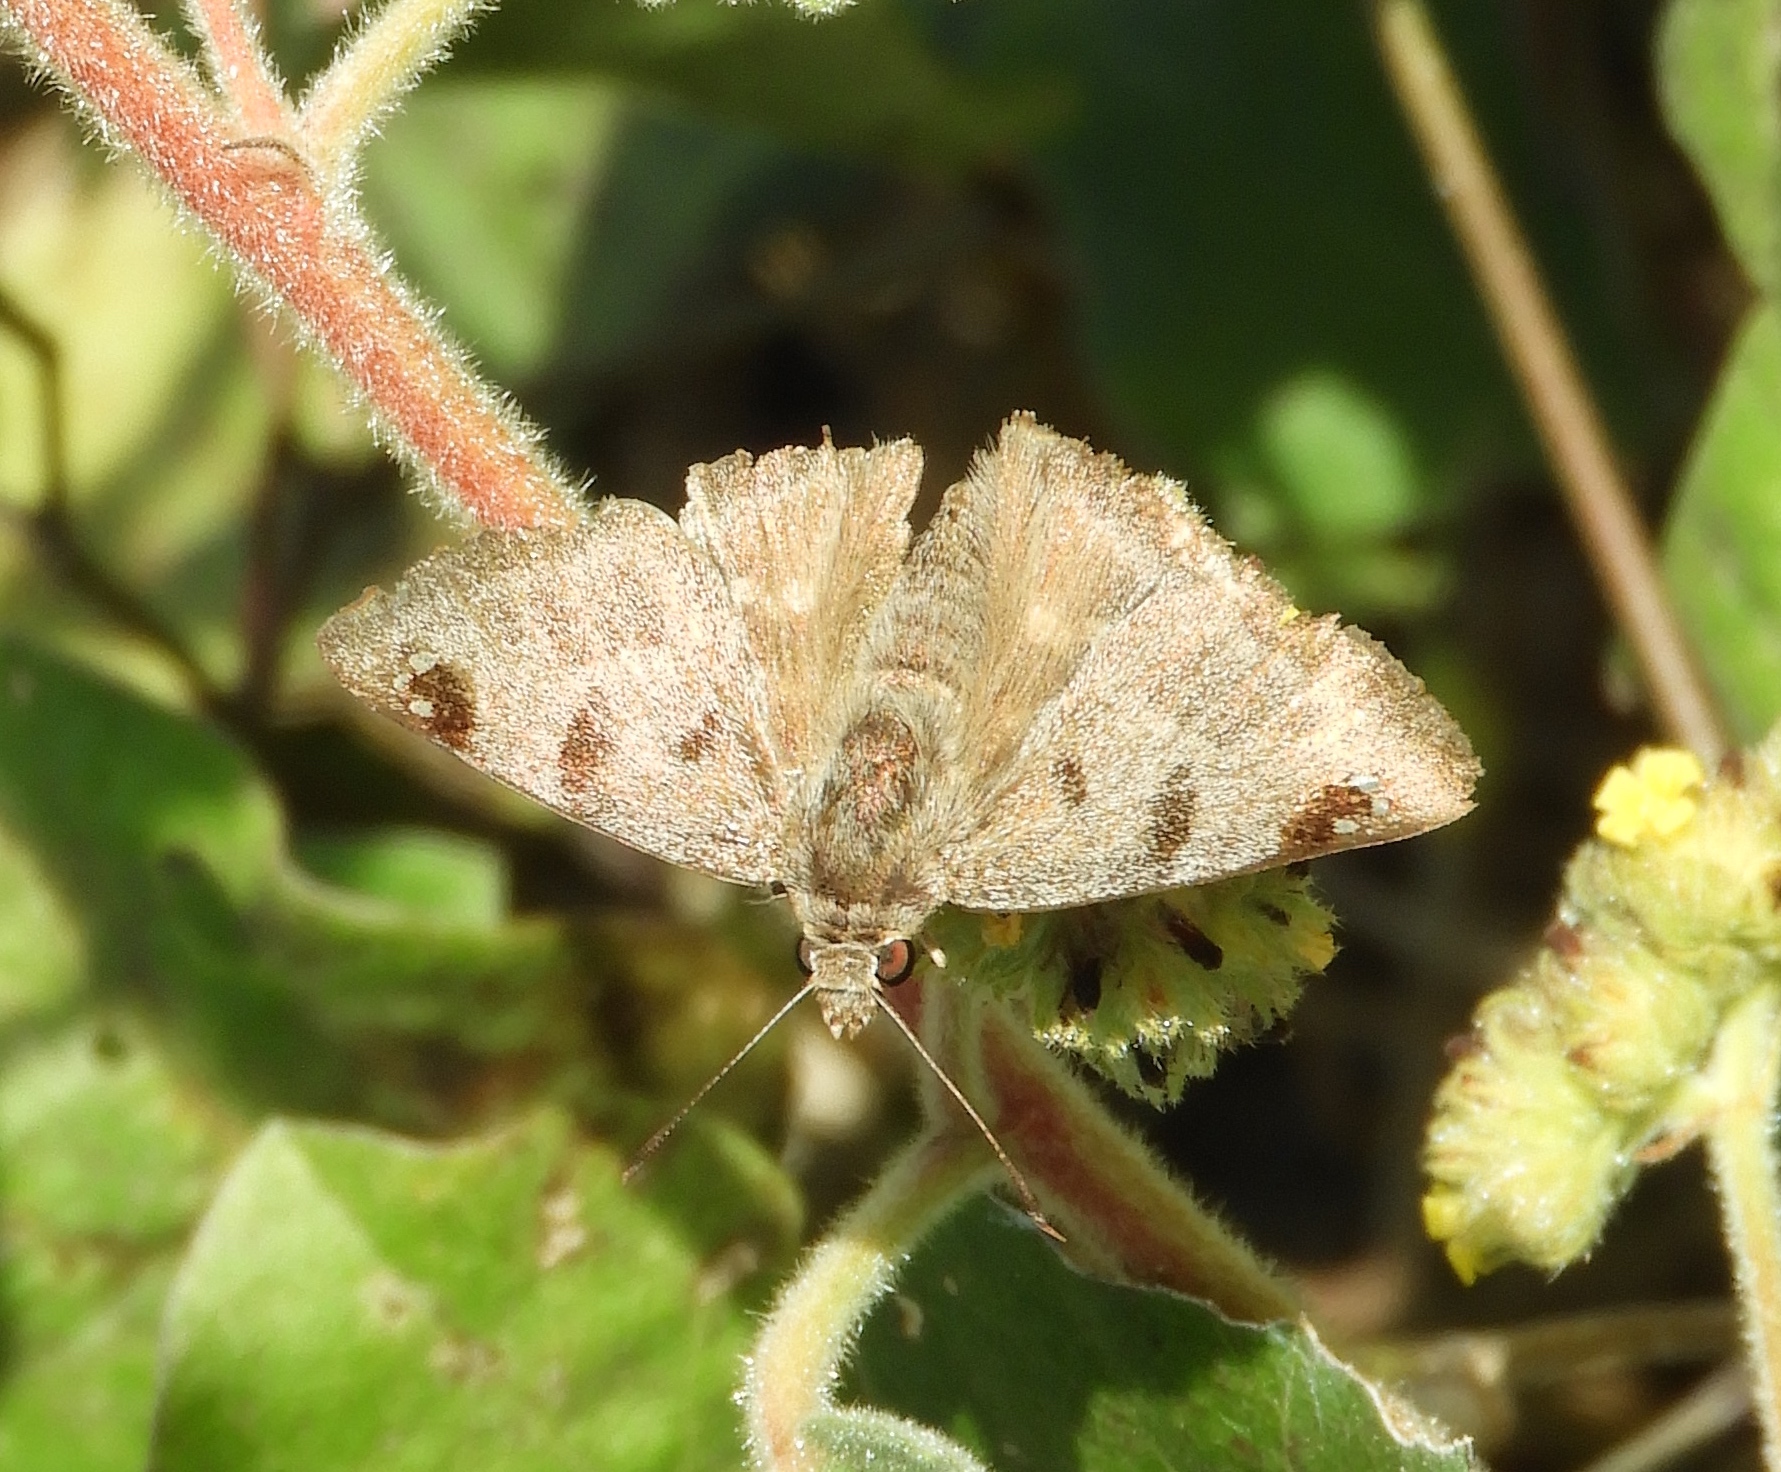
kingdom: Animalia
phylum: Arthropoda
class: Insecta
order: Lepidoptera
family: Hesperiidae
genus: Arteurotia
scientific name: Arteurotia tractipennis
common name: Starred skipper
